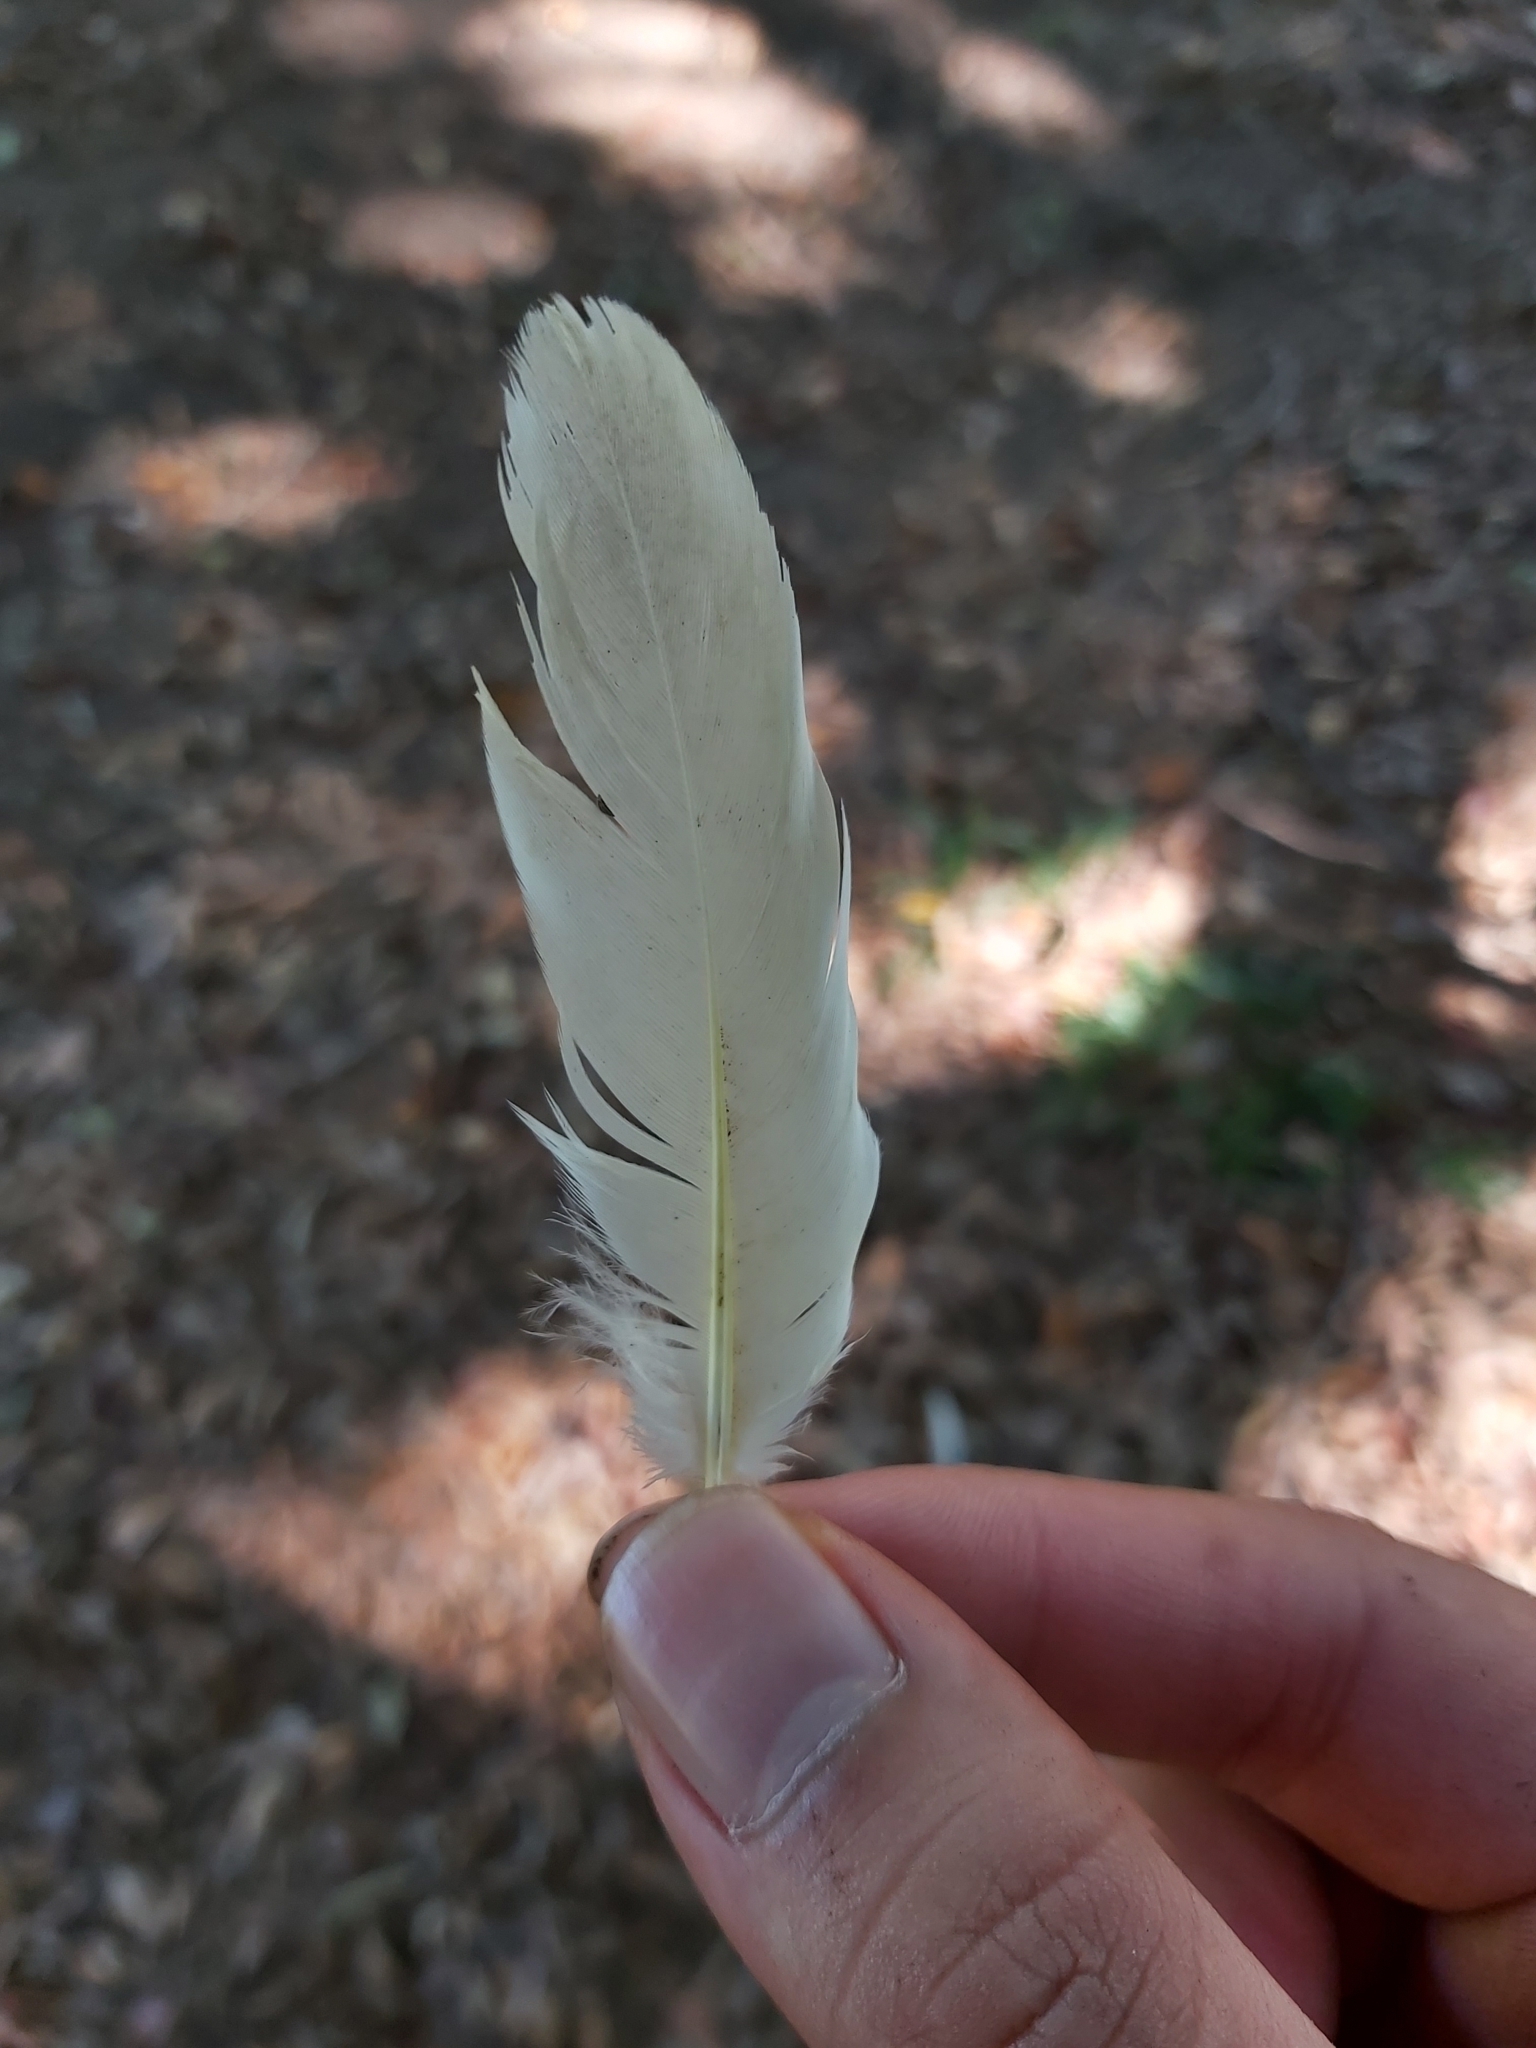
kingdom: Animalia
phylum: Chordata
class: Aves
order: Columbiformes
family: Columbidae
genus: Ducula
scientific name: Ducula spilorrhoa
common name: Torresian imperial pigeon
